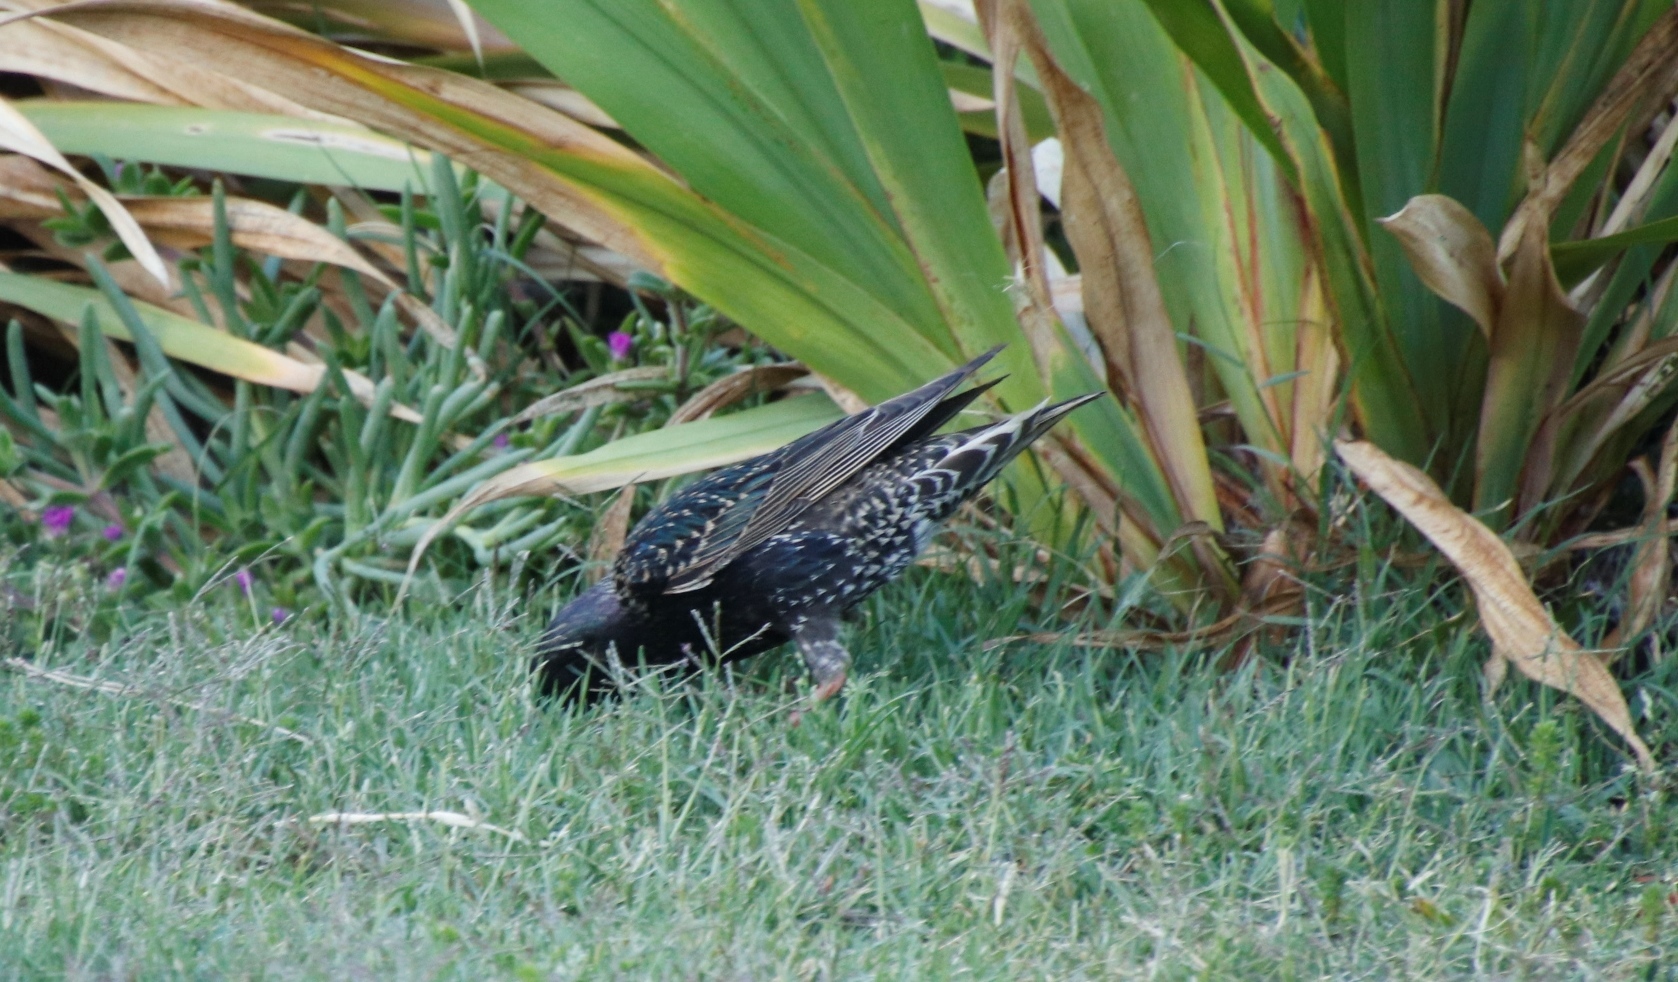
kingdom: Animalia
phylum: Chordata
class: Aves
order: Passeriformes
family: Sturnidae
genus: Sturnus
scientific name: Sturnus vulgaris
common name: Common starling
